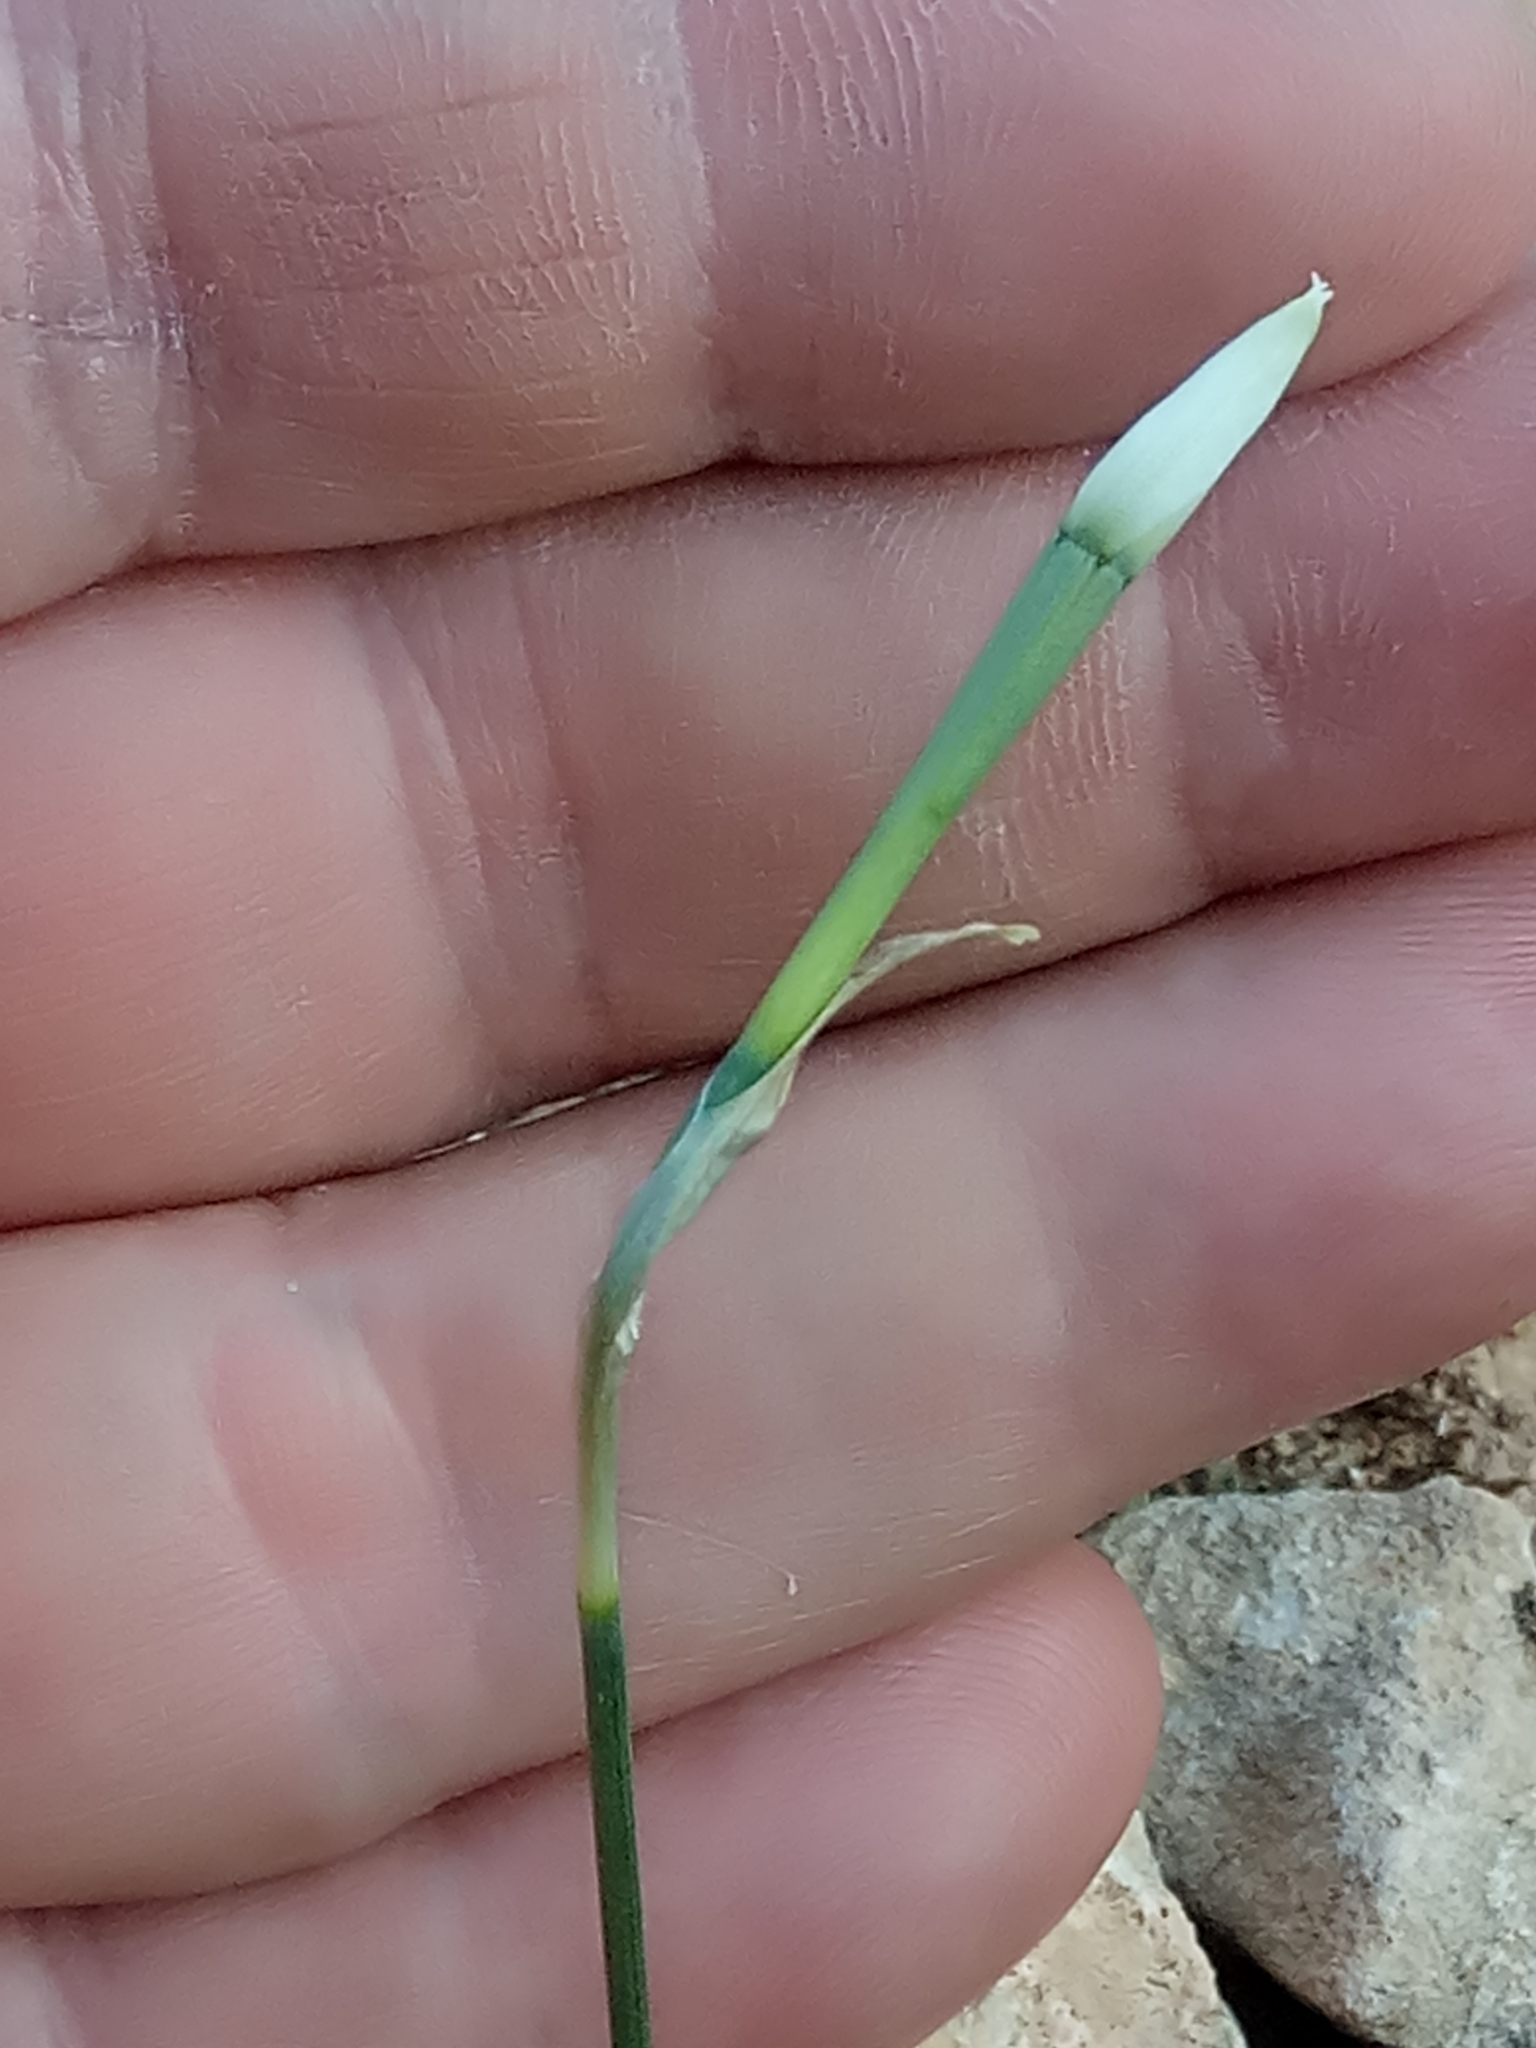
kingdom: Plantae
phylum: Tracheophyta
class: Liliopsida
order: Asparagales
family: Amaryllidaceae
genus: Narcissus
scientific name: Narcissus deficiens
